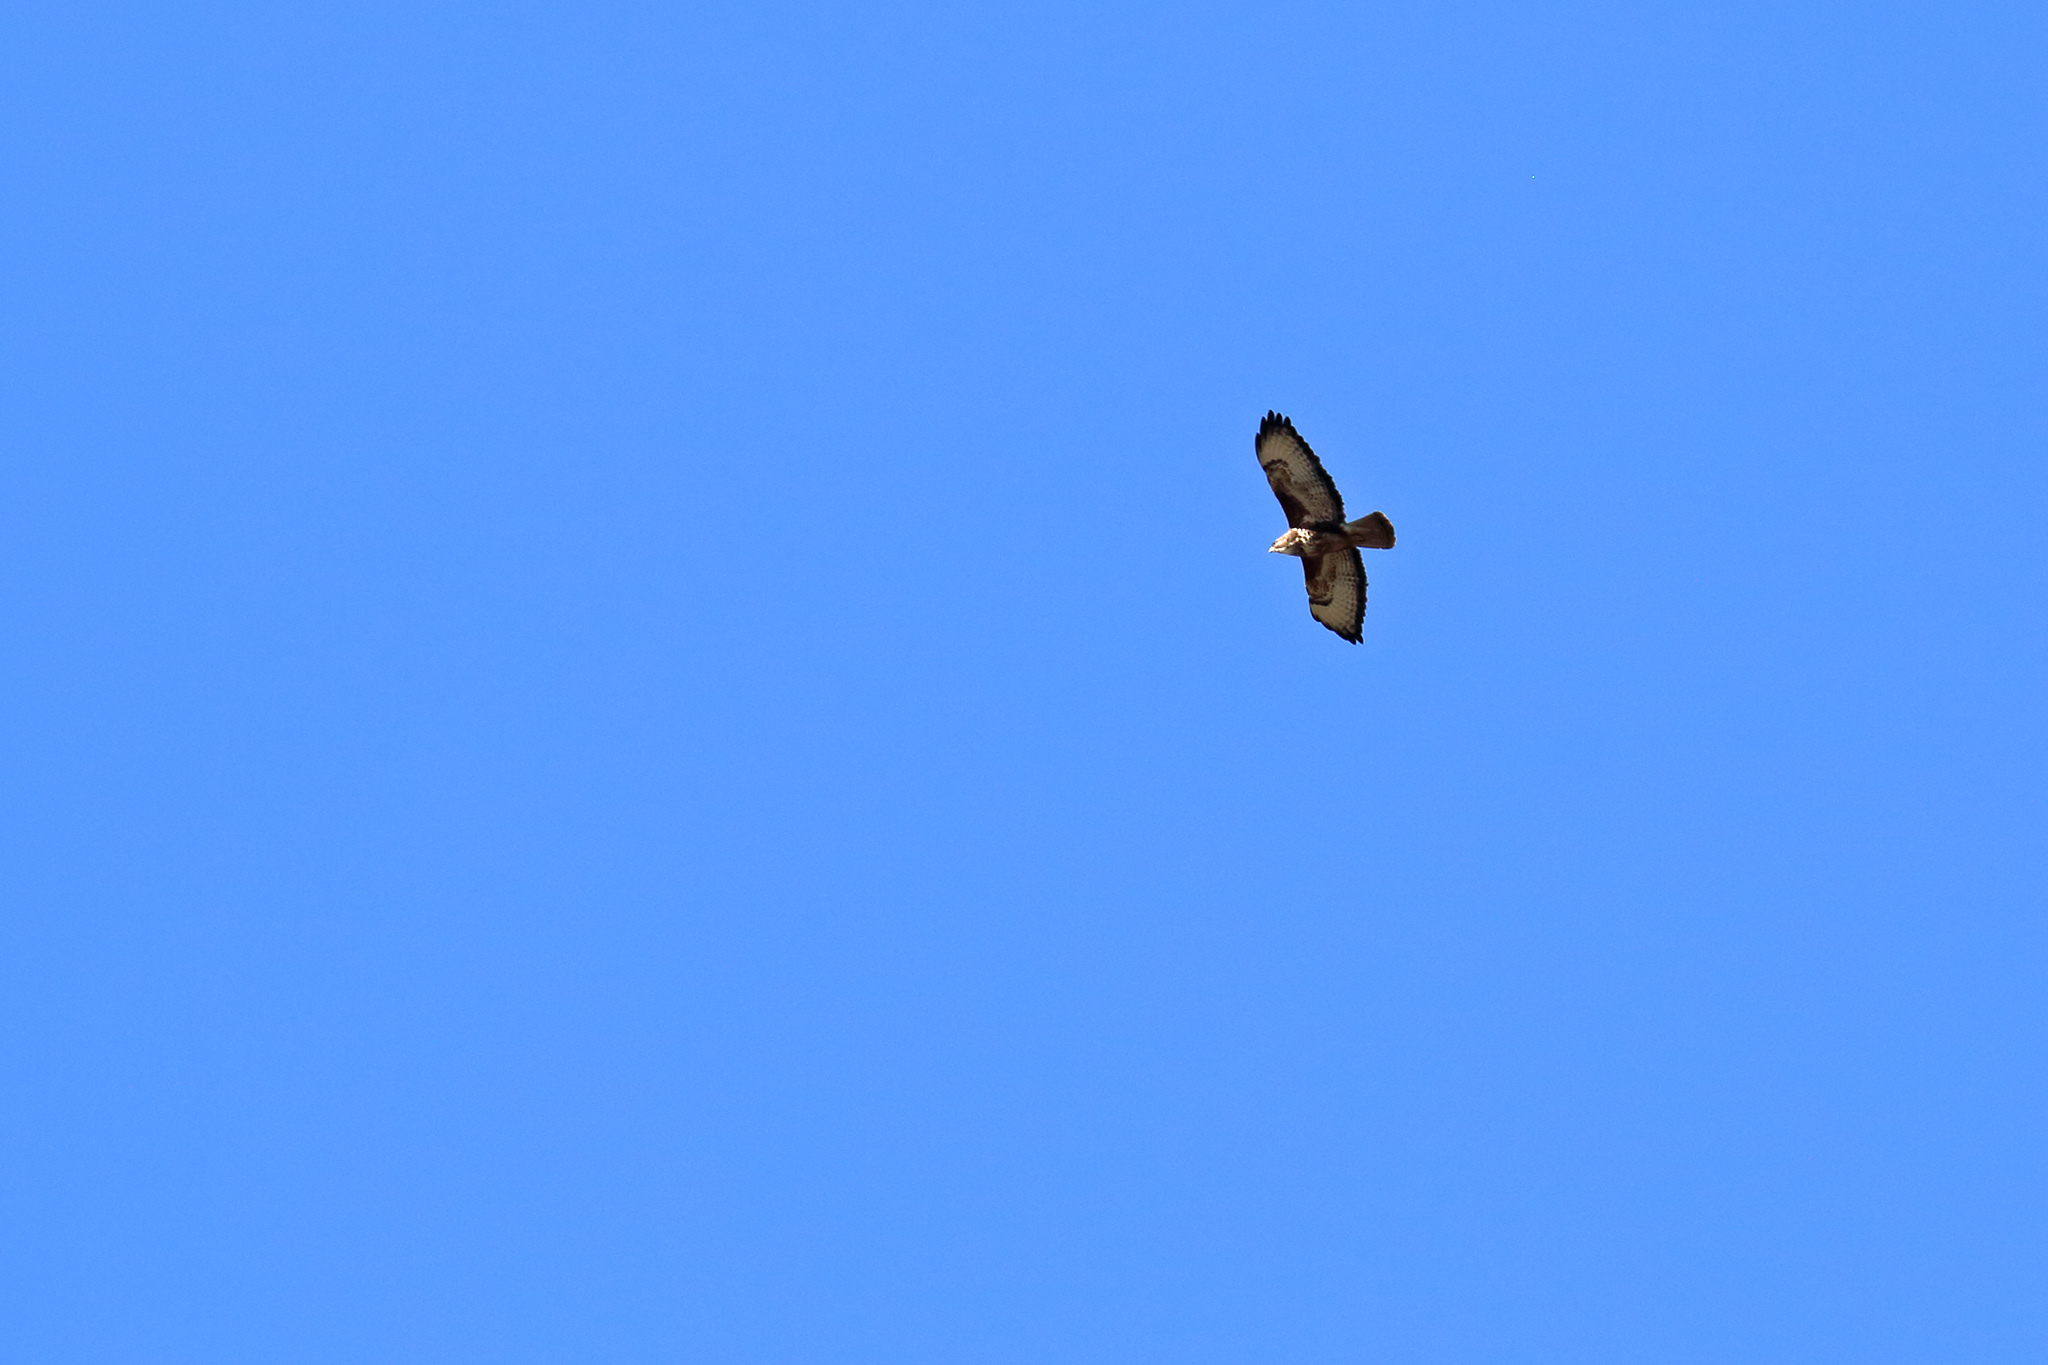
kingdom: Animalia
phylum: Chordata
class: Aves
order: Accipitriformes
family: Accipitridae
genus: Buteo
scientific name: Buteo buteo
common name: Common buzzard
